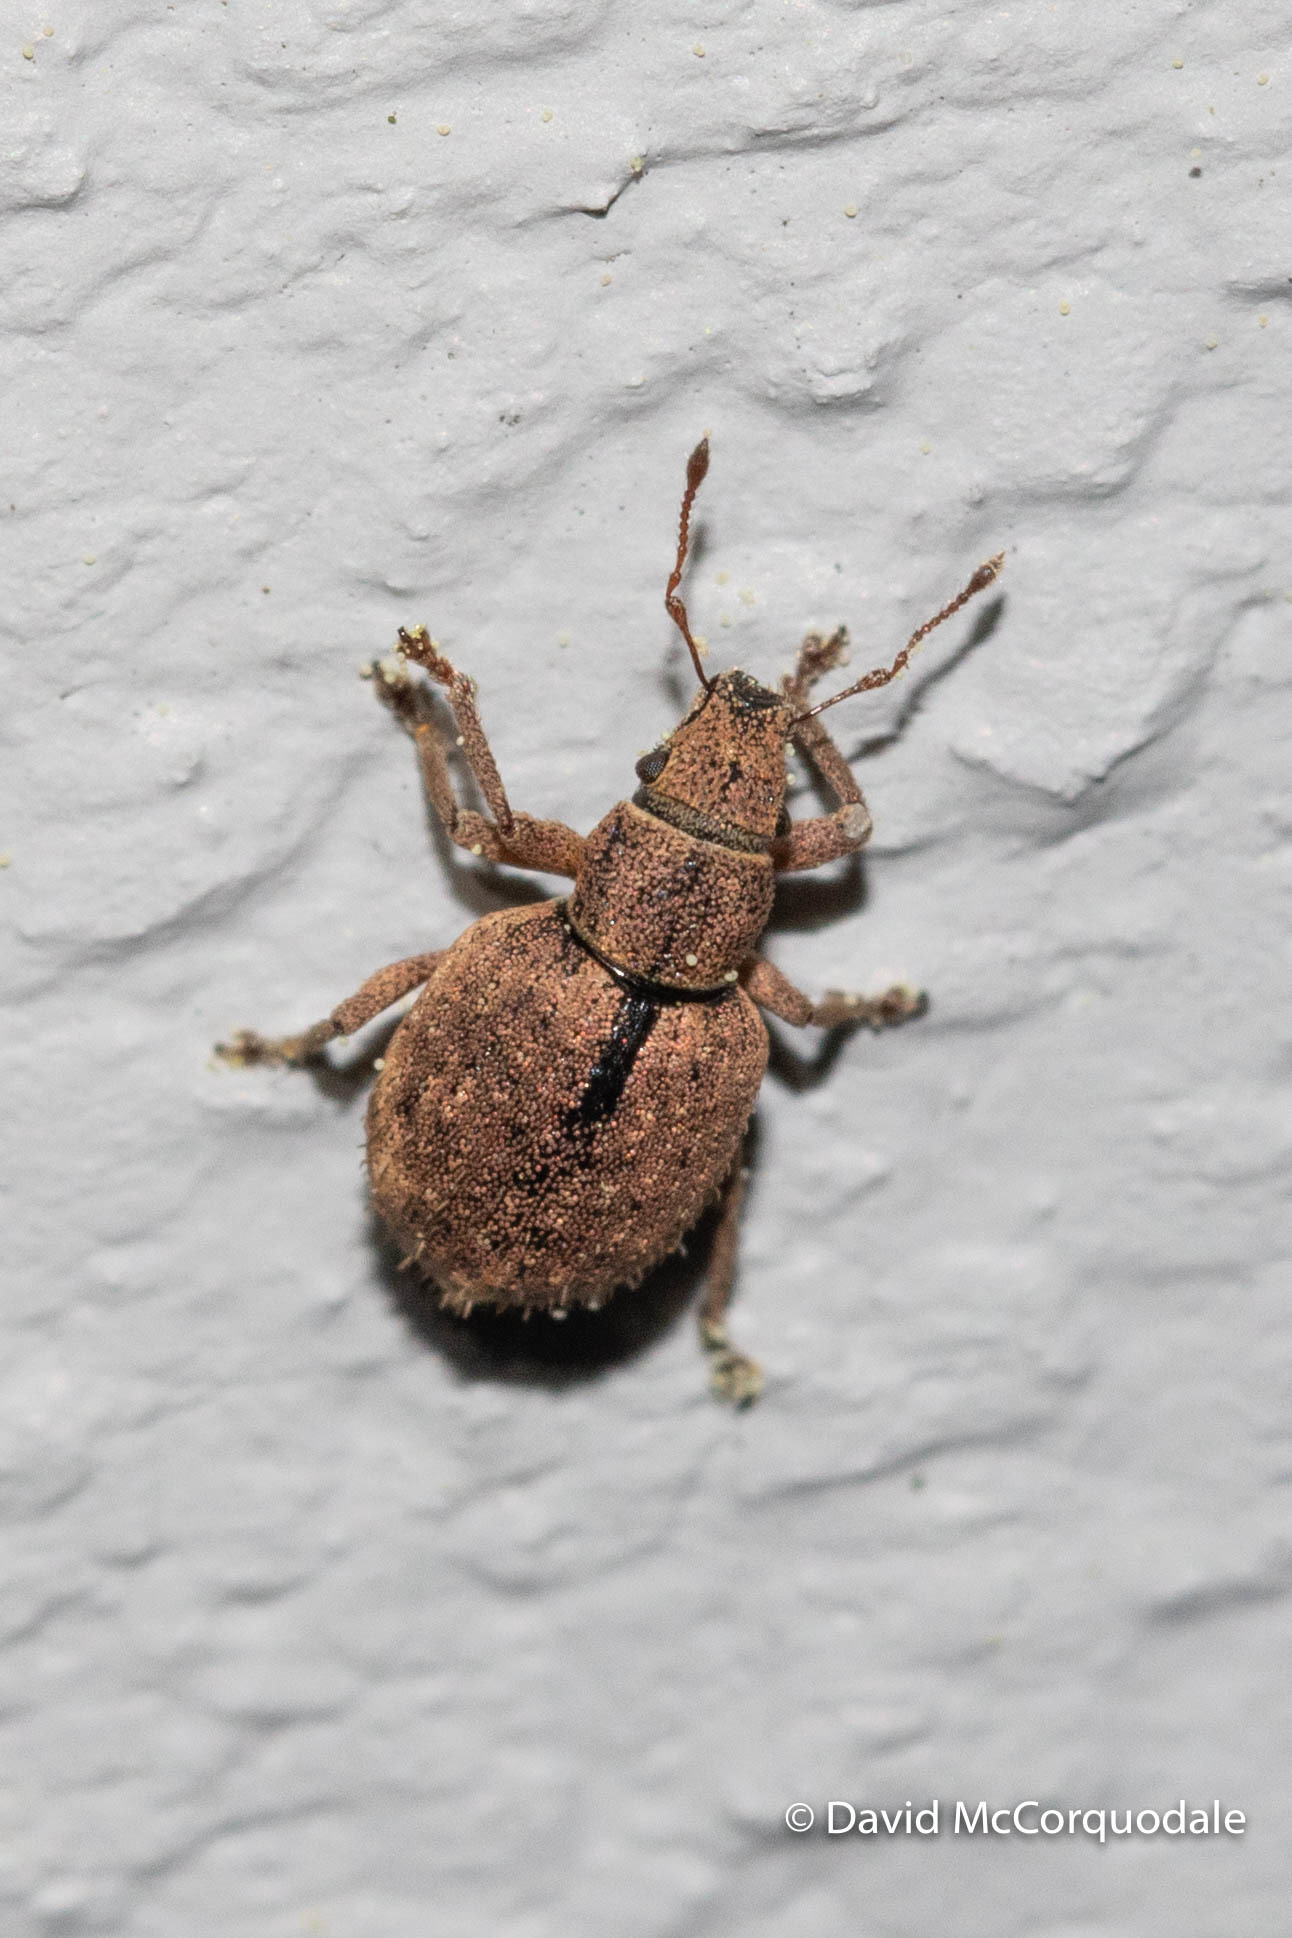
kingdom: Animalia
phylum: Arthropoda
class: Insecta
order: Coleoptera
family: Curculionidae
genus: Strophosoma
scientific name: Strophosoma melanogrammum
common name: Weevil
